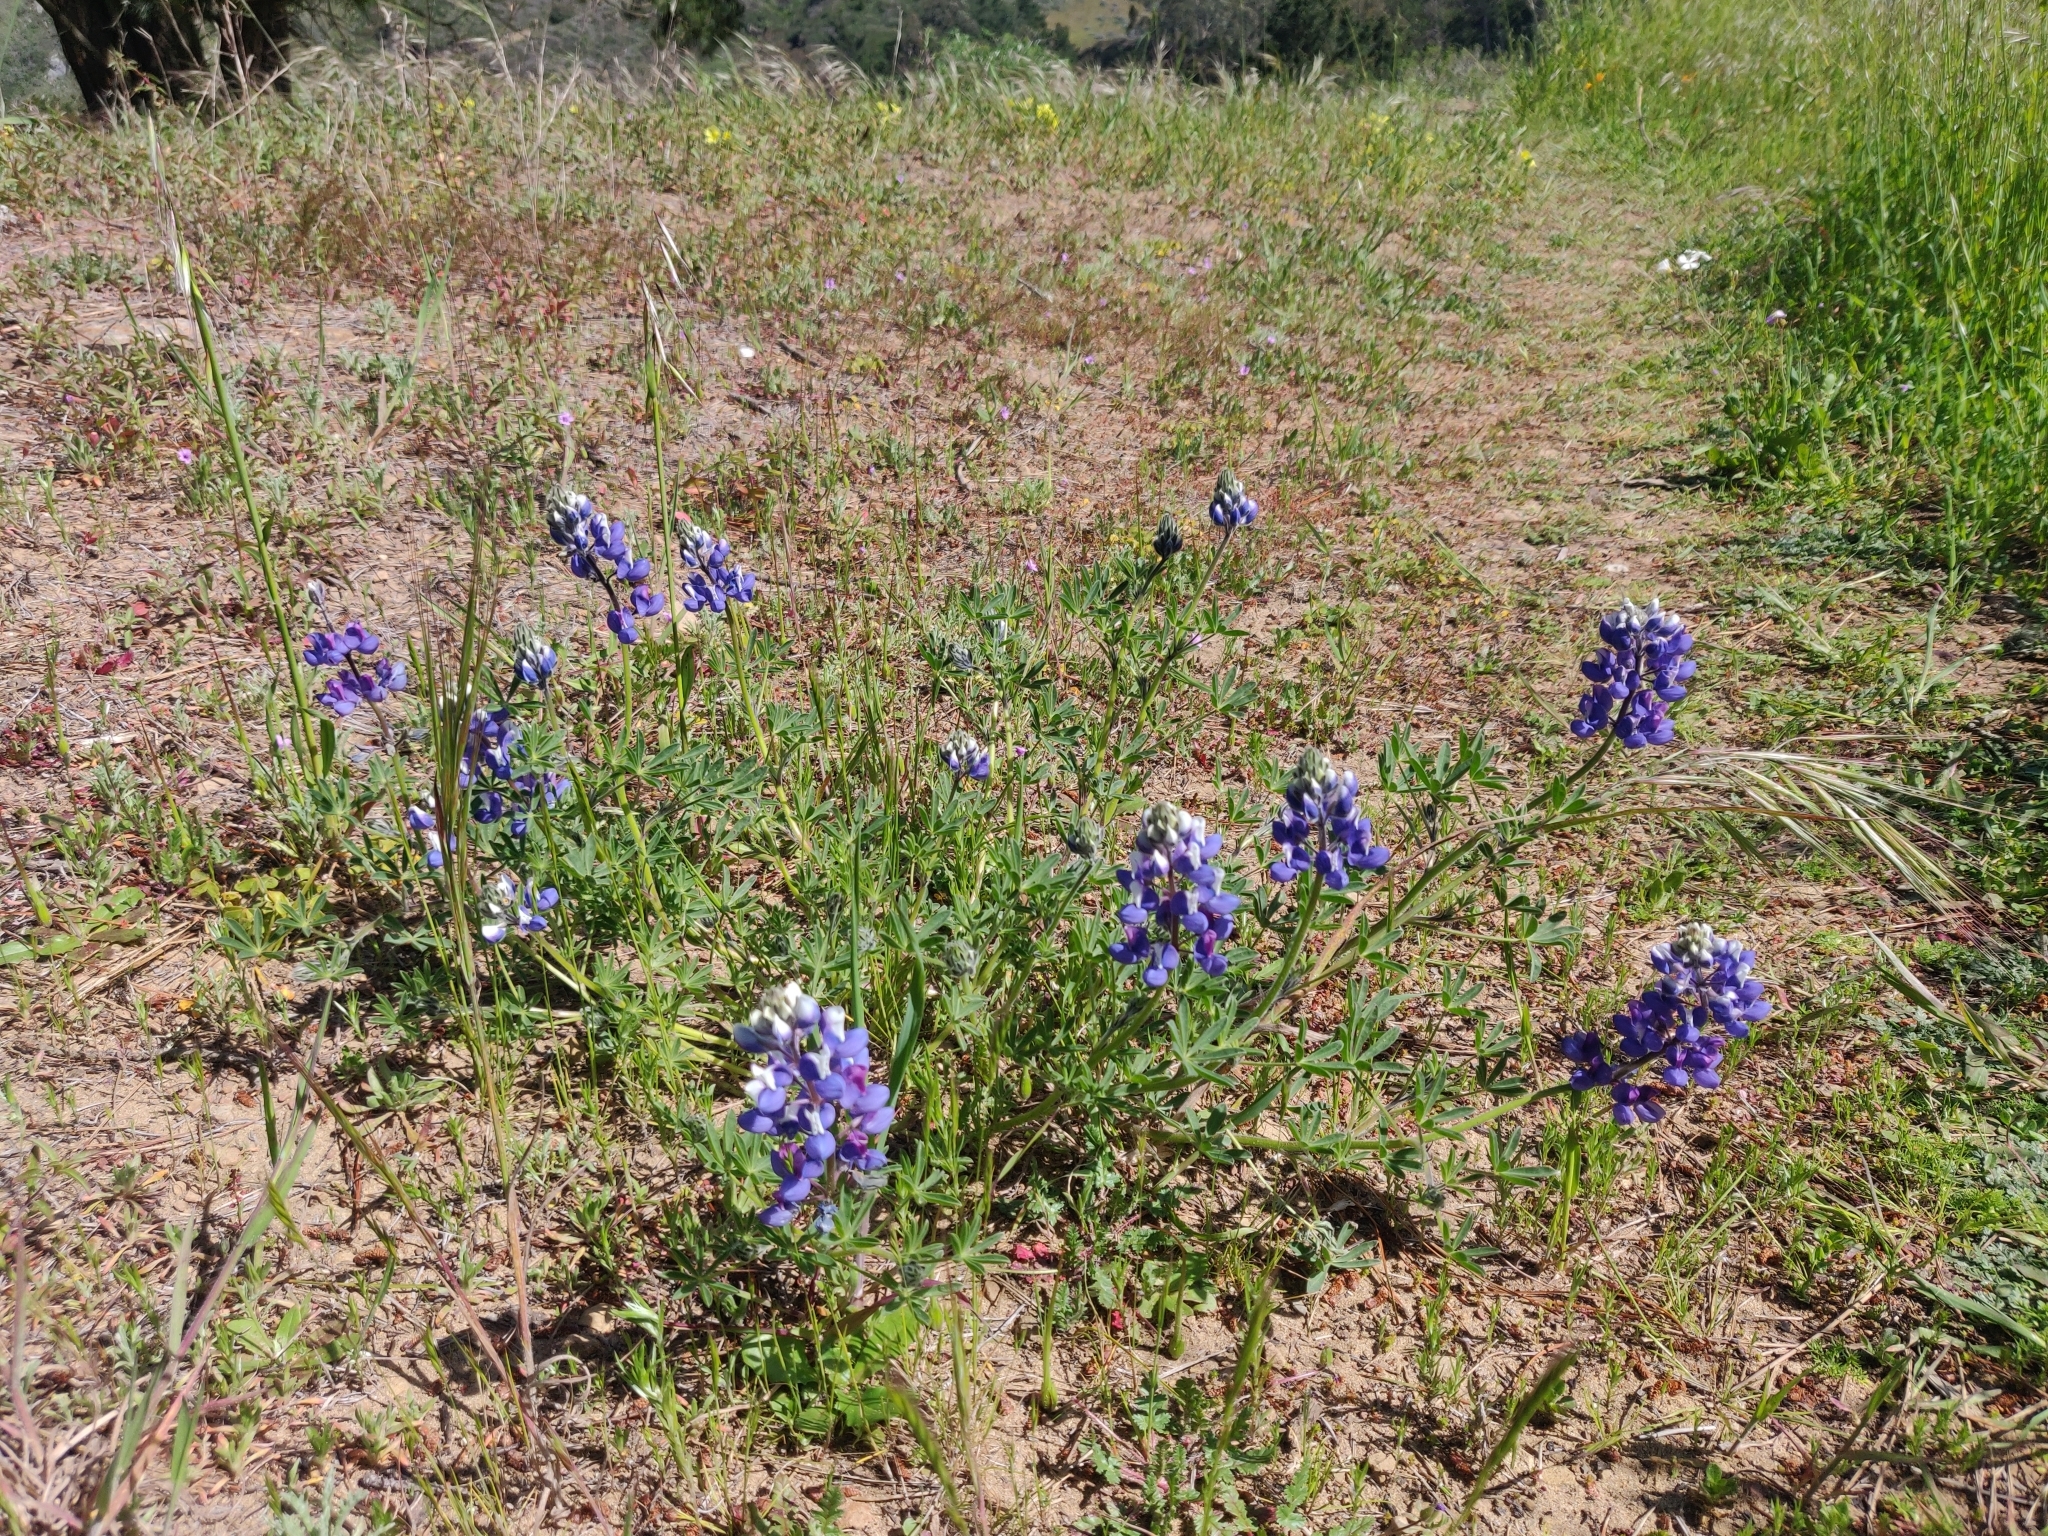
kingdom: Plantae
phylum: Tracheophyta
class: Magnoliopsida
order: Fabales
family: Fabaceae
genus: Lupinus
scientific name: Lupinus nanus
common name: Orean blue lupin
